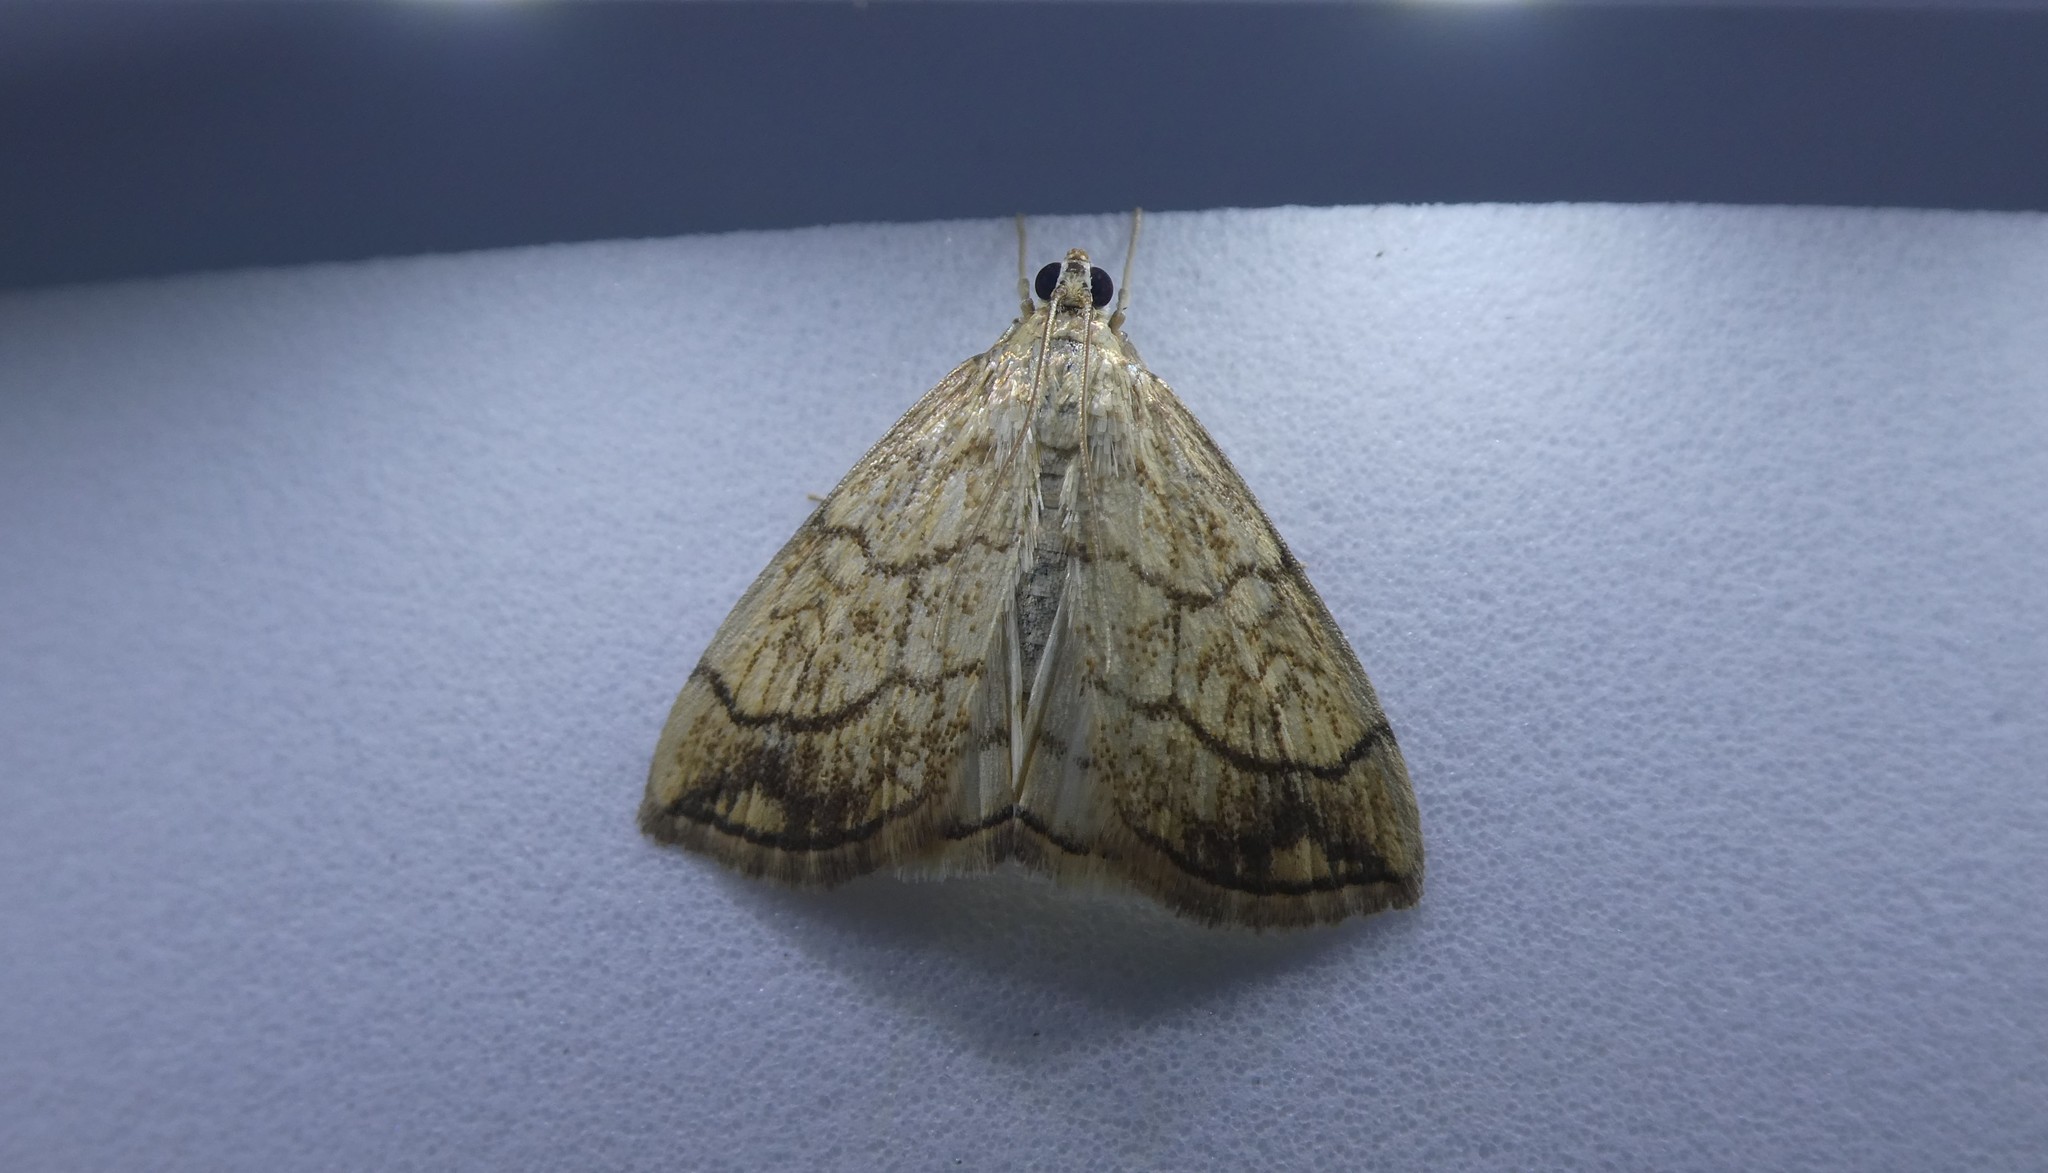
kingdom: Animalia
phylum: Arthropoda
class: Insecta
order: Lepidoptera
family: Crambidae
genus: Evergestis
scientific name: Evergestis pallidata
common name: Chequered pearl
